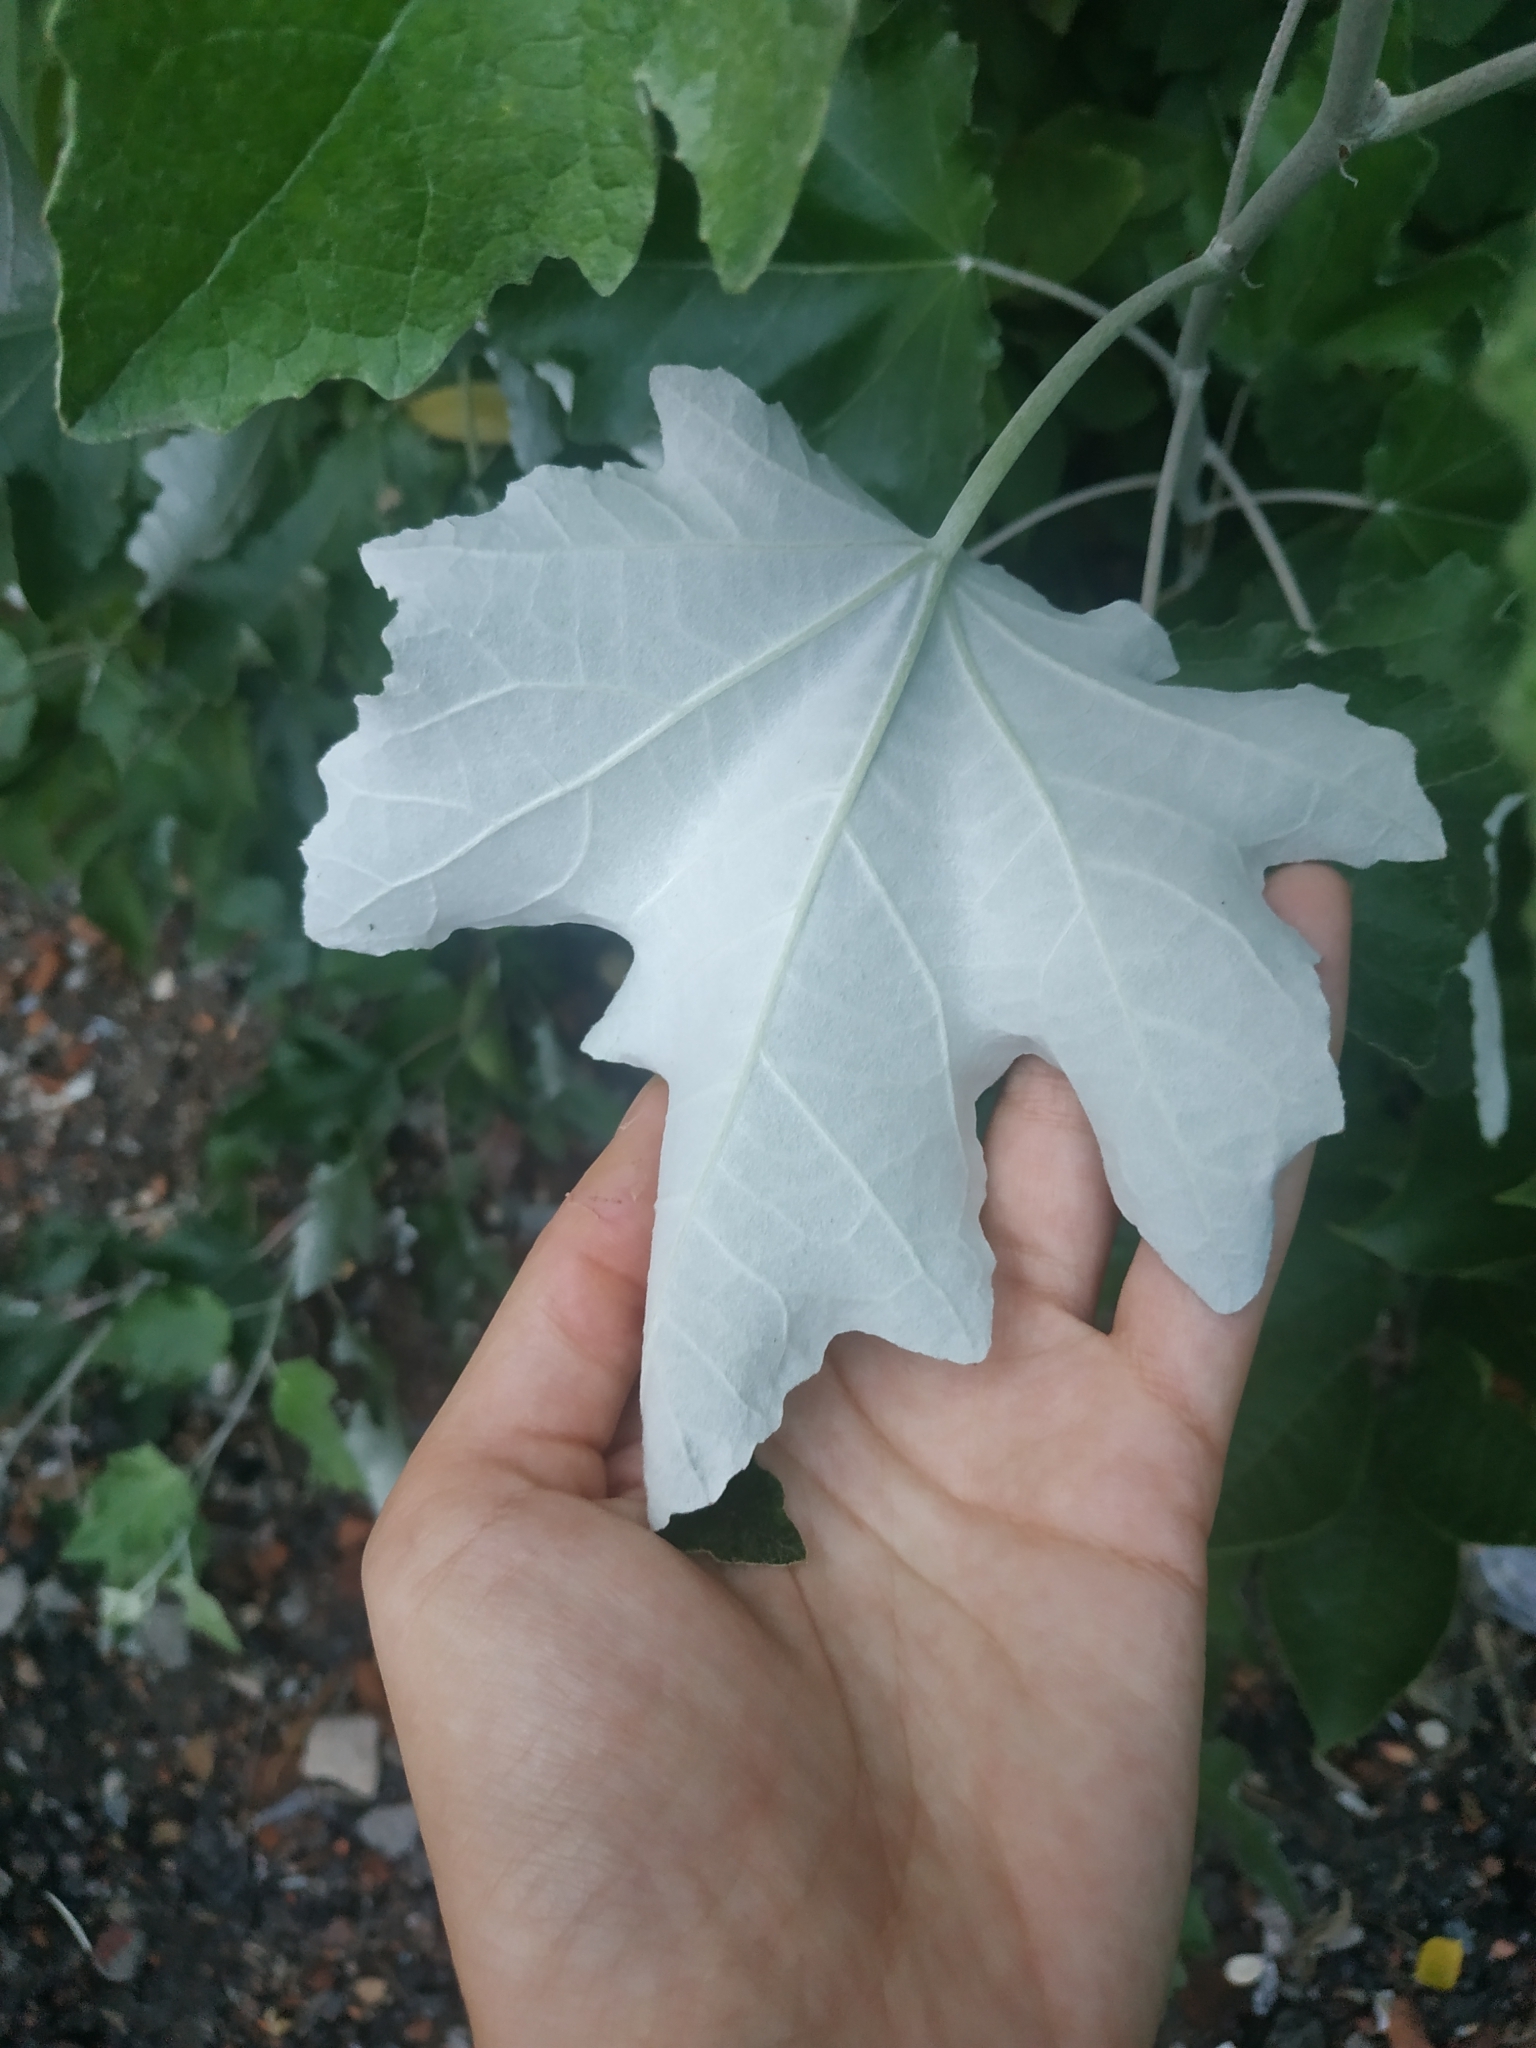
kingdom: Plantae
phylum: Tracheophyta
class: Magnoliopsida
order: Malpighiales
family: Salicaceae
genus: Populus
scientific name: Populus alba
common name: White poplar
